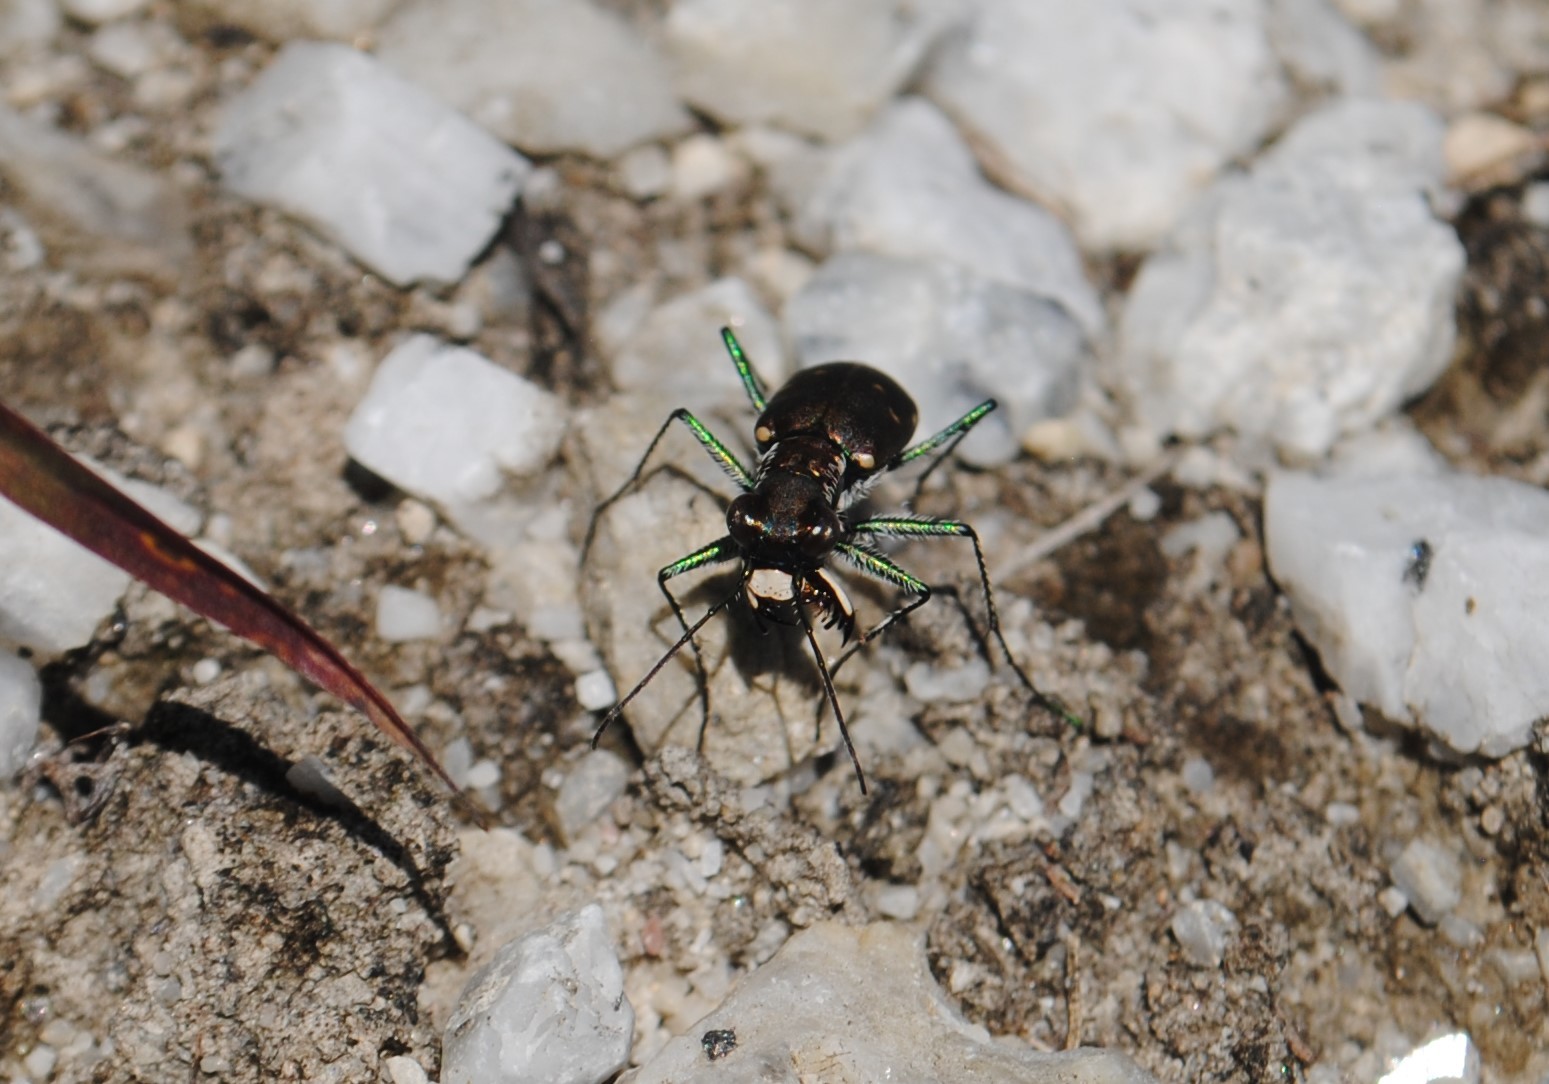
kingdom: Animalia
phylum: Arthropoda
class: Insecta
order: Coleoptera
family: Carabidae
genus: Cicindela
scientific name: Cicindela rufiventris
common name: Eastern red-bellied tiger beetle
